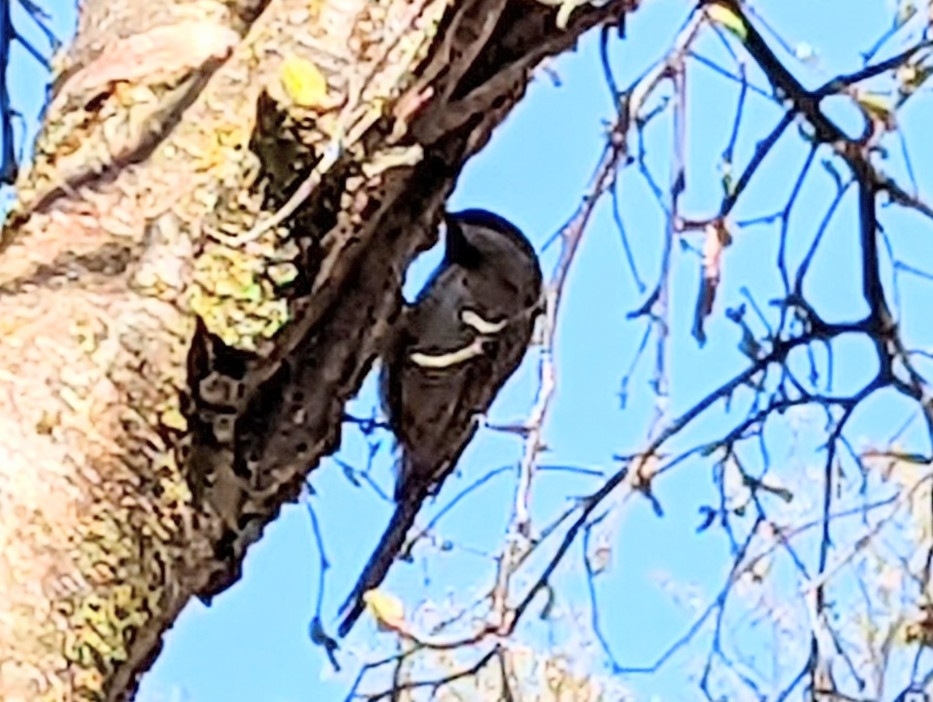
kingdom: Animalia
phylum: Chordata
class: Aves
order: Passeriformes
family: Paridae
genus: Poecile
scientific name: Poecile hudsonicus
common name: Boreal chickadee
